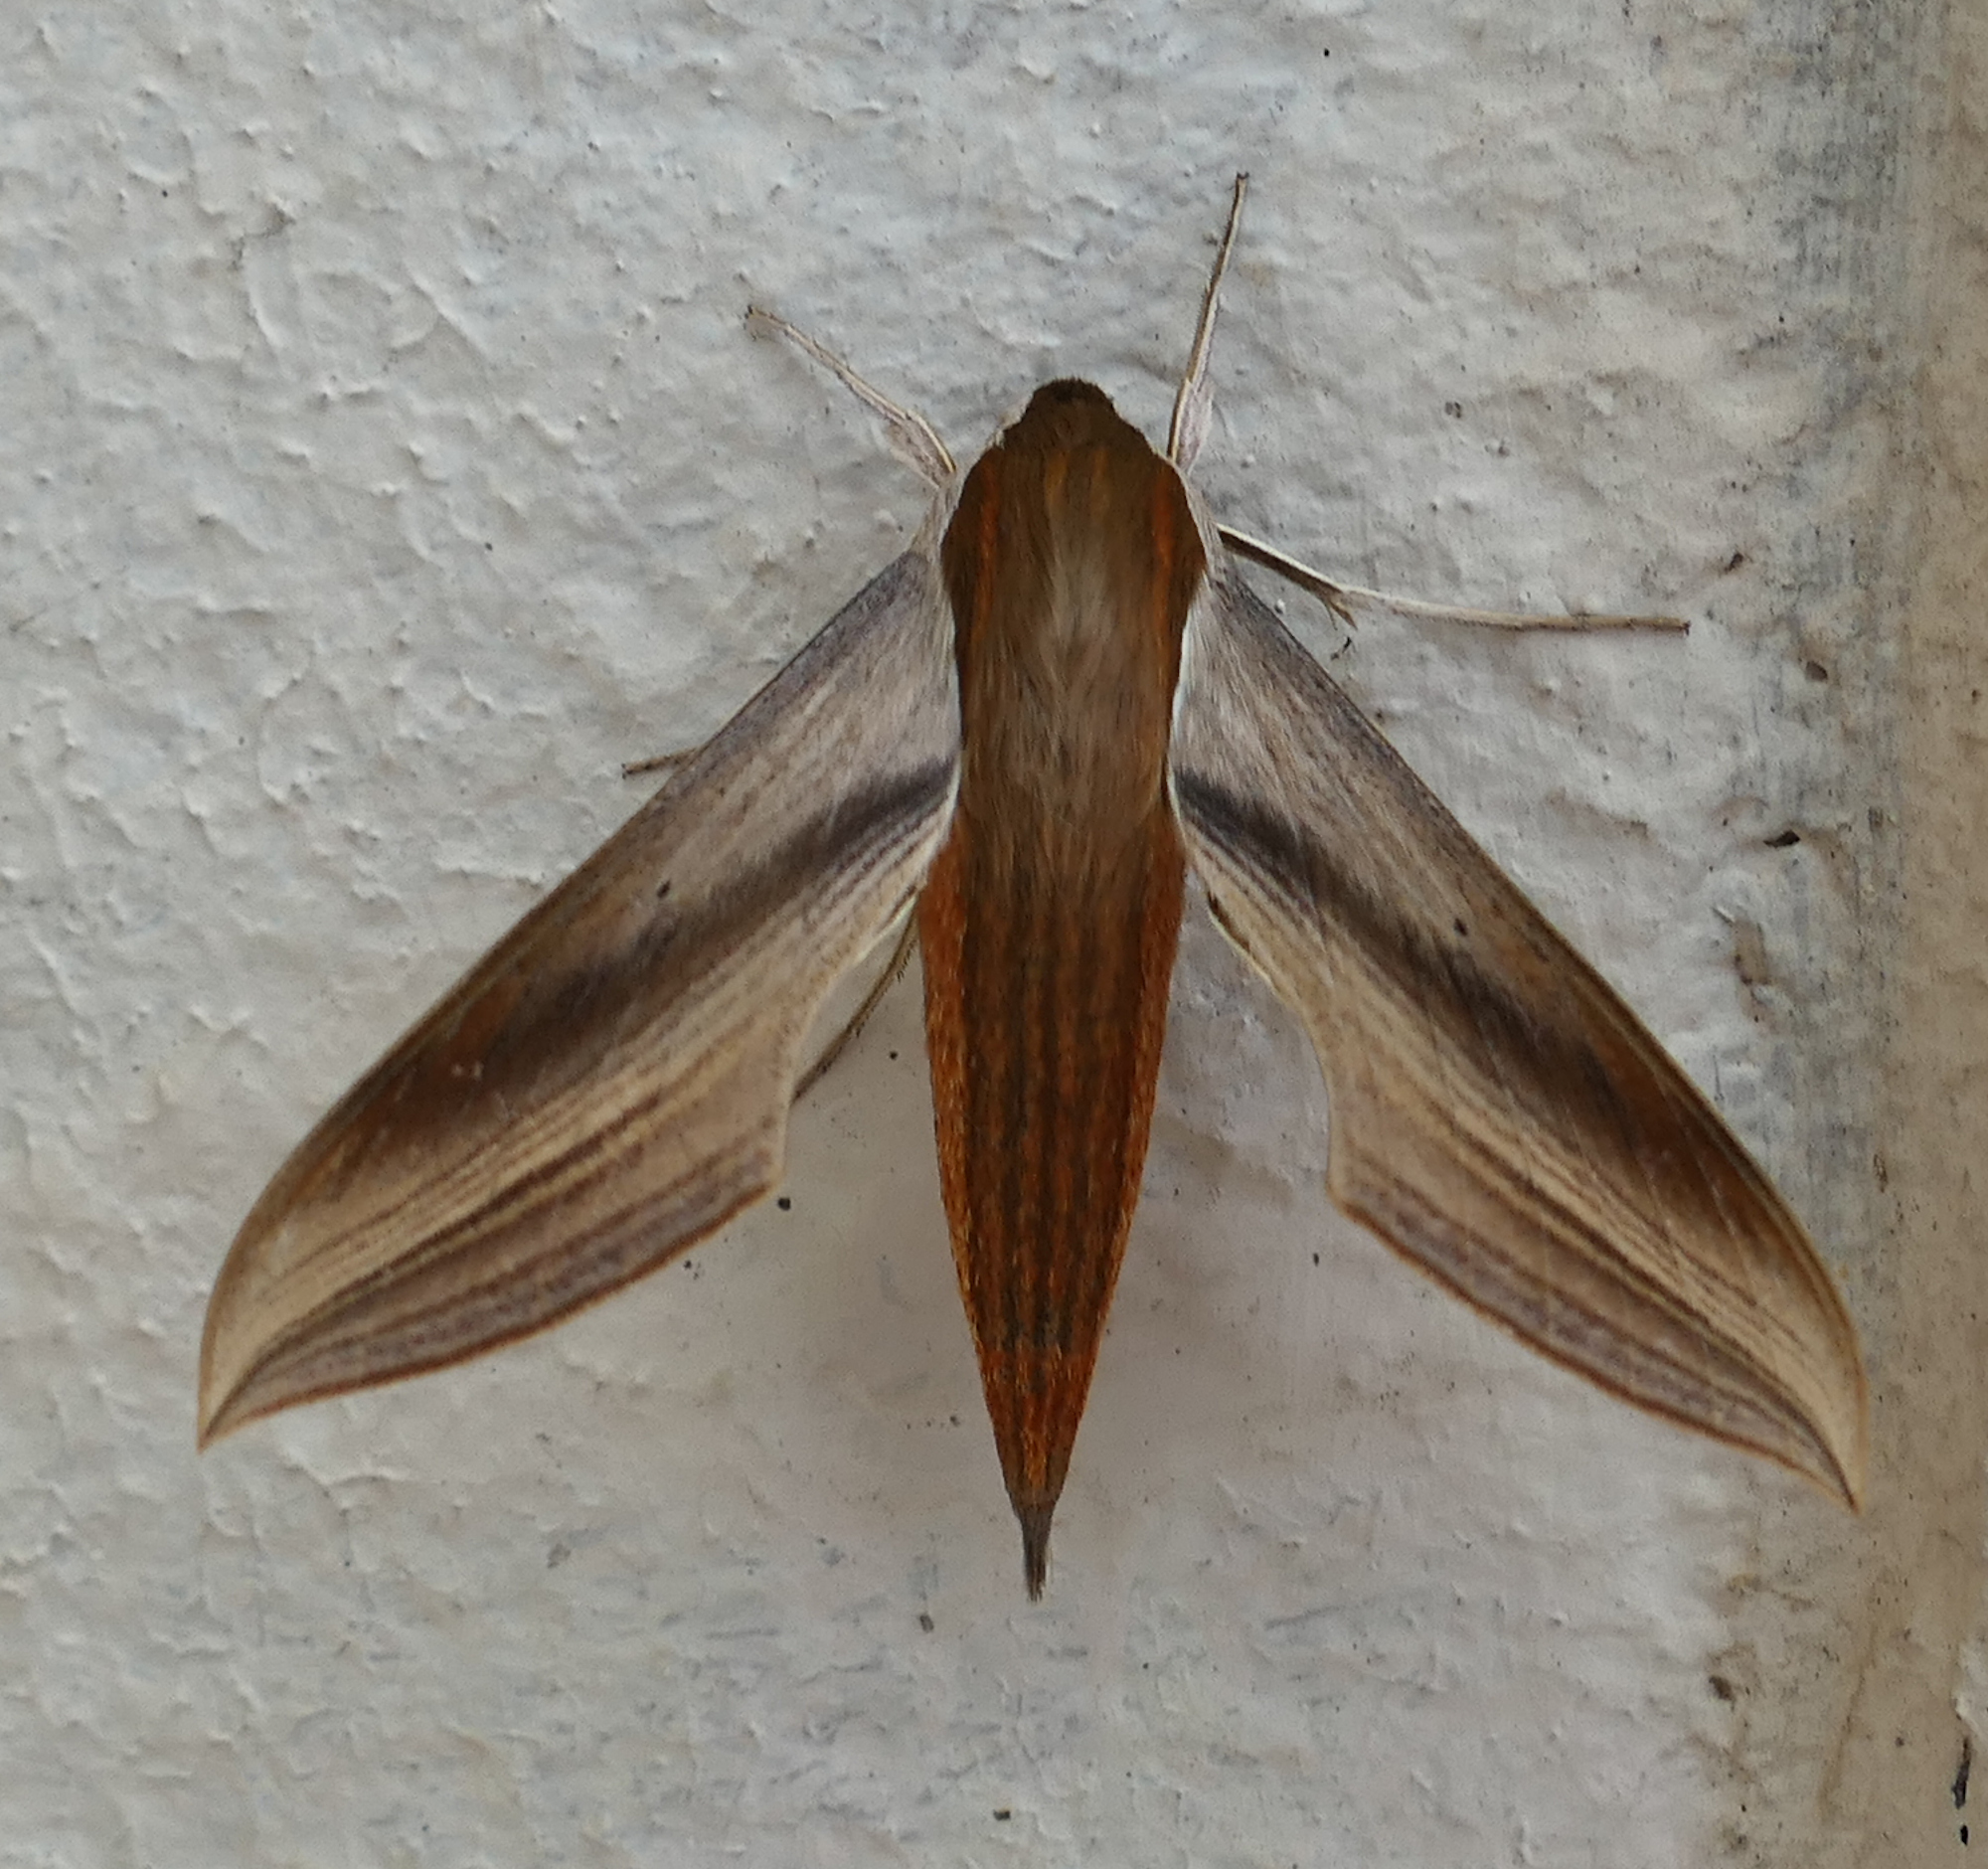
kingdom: Animalia
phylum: Arthropoda
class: Insecta
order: Lepidoptera
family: Sphingidae
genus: Xylophanes
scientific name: Xylophanes tersa
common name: Tersa sphinx
